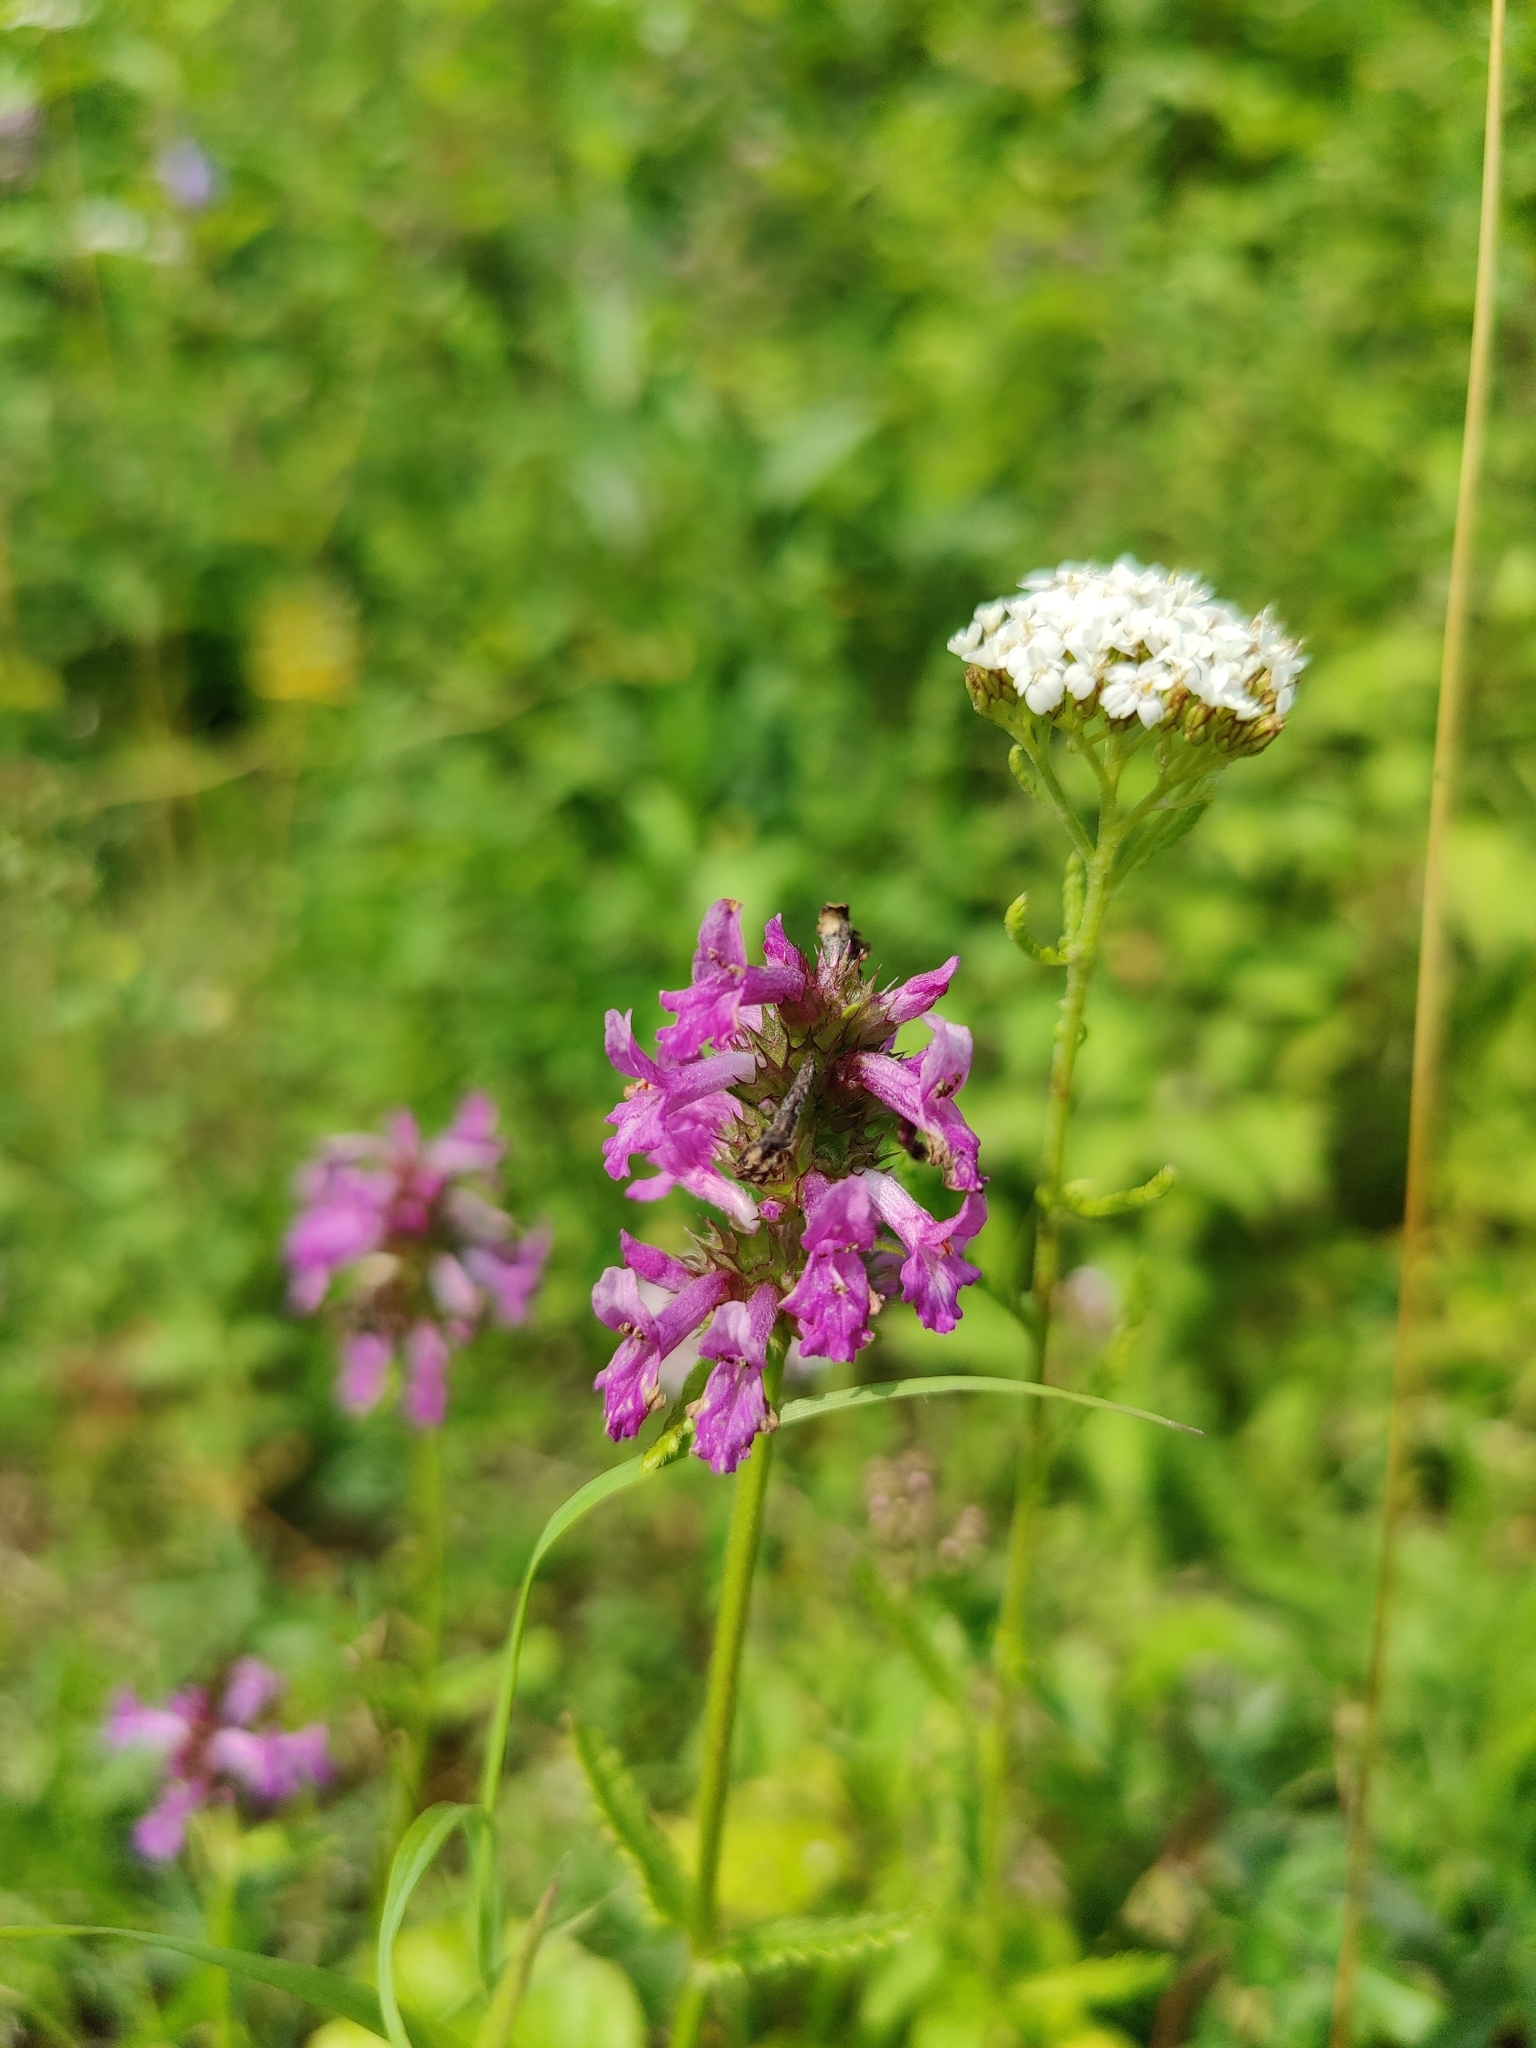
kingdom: Plantae
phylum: Tracheophyta
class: Magnoliopsida
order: Lamiales
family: Lamiaceae
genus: Betonica
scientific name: Betonica officinalis
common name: Bishop's-wort
